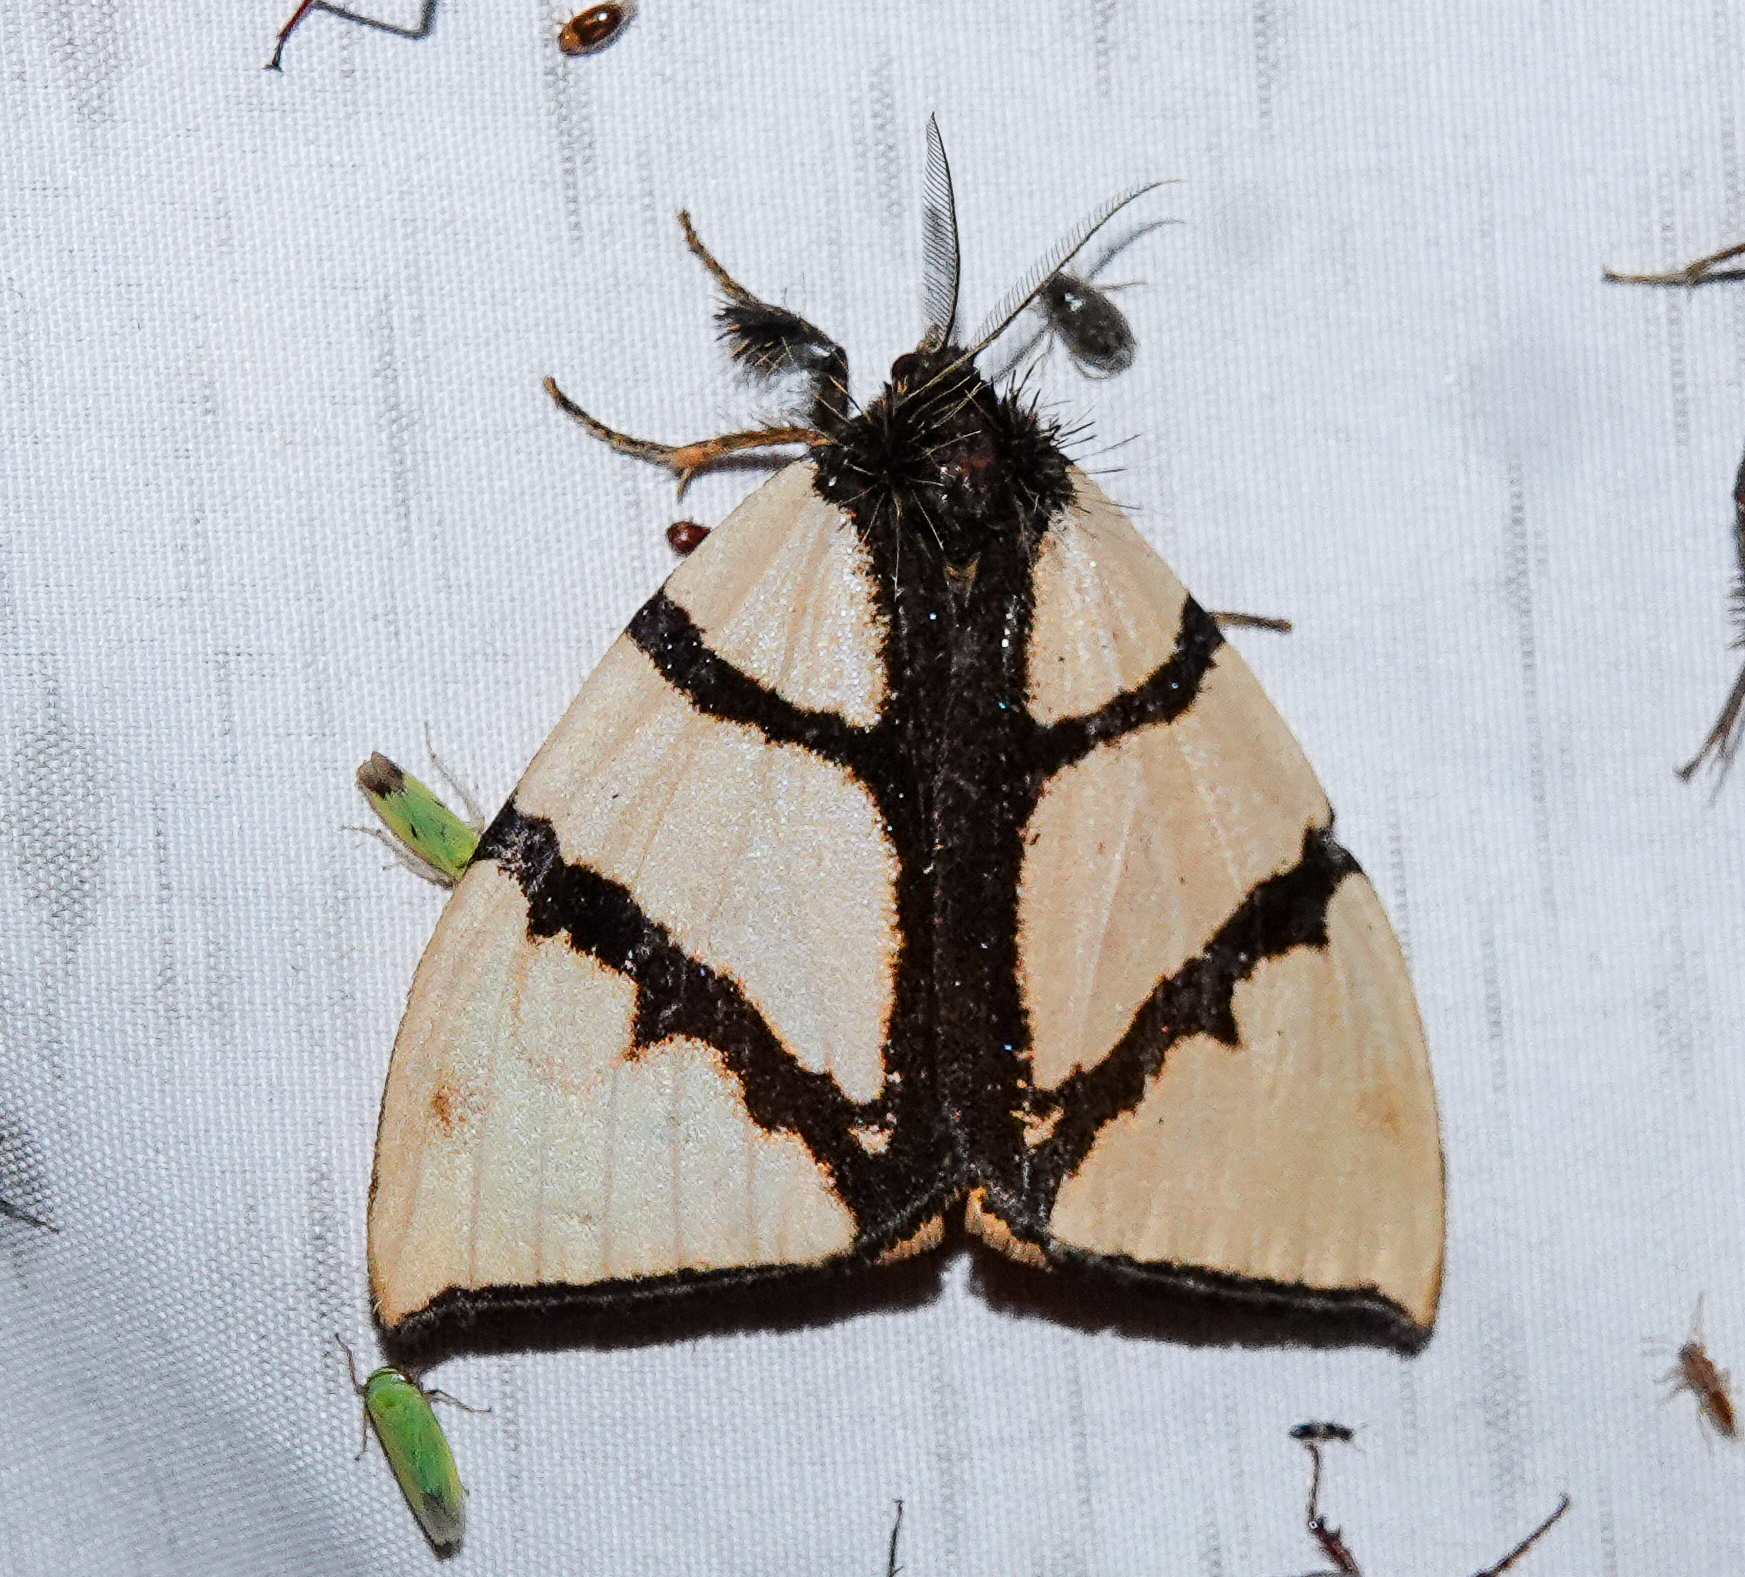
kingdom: Animalia
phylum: Arthropoda
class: Insecta
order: Lepidoptera
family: Erebidae
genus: Numenes
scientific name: Numenes siletti
